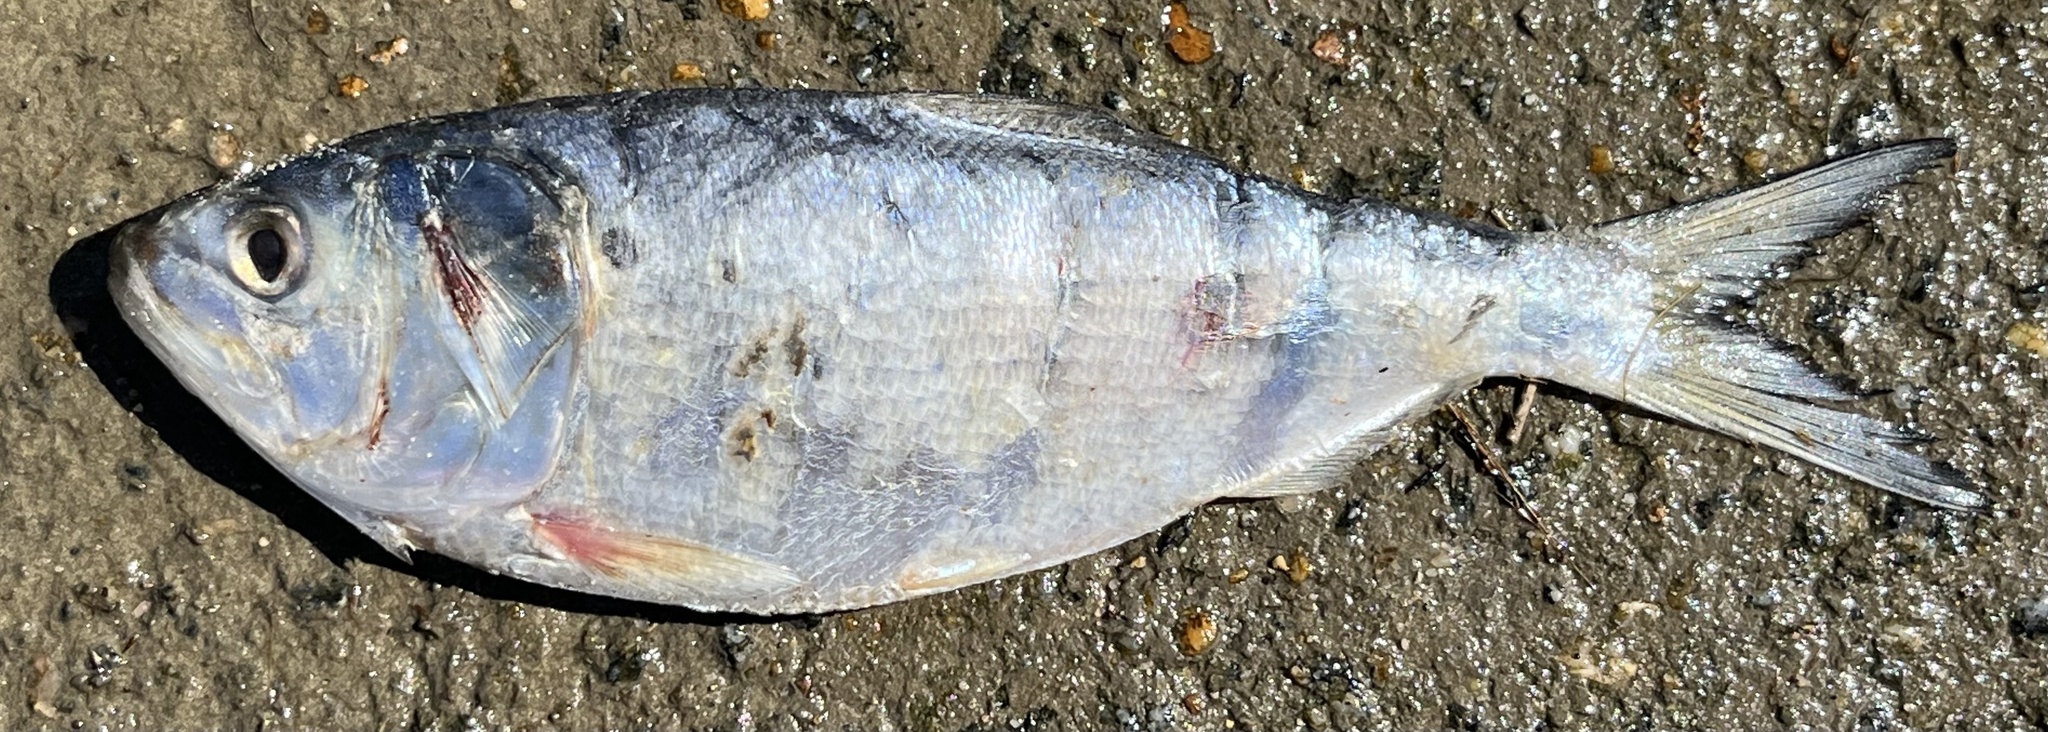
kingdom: Animalia
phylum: Chordata
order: Clupeiformes
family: Clupeidae
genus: Brevoortia
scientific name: Brevoortia tyrannus
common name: Atlantic menhaden
